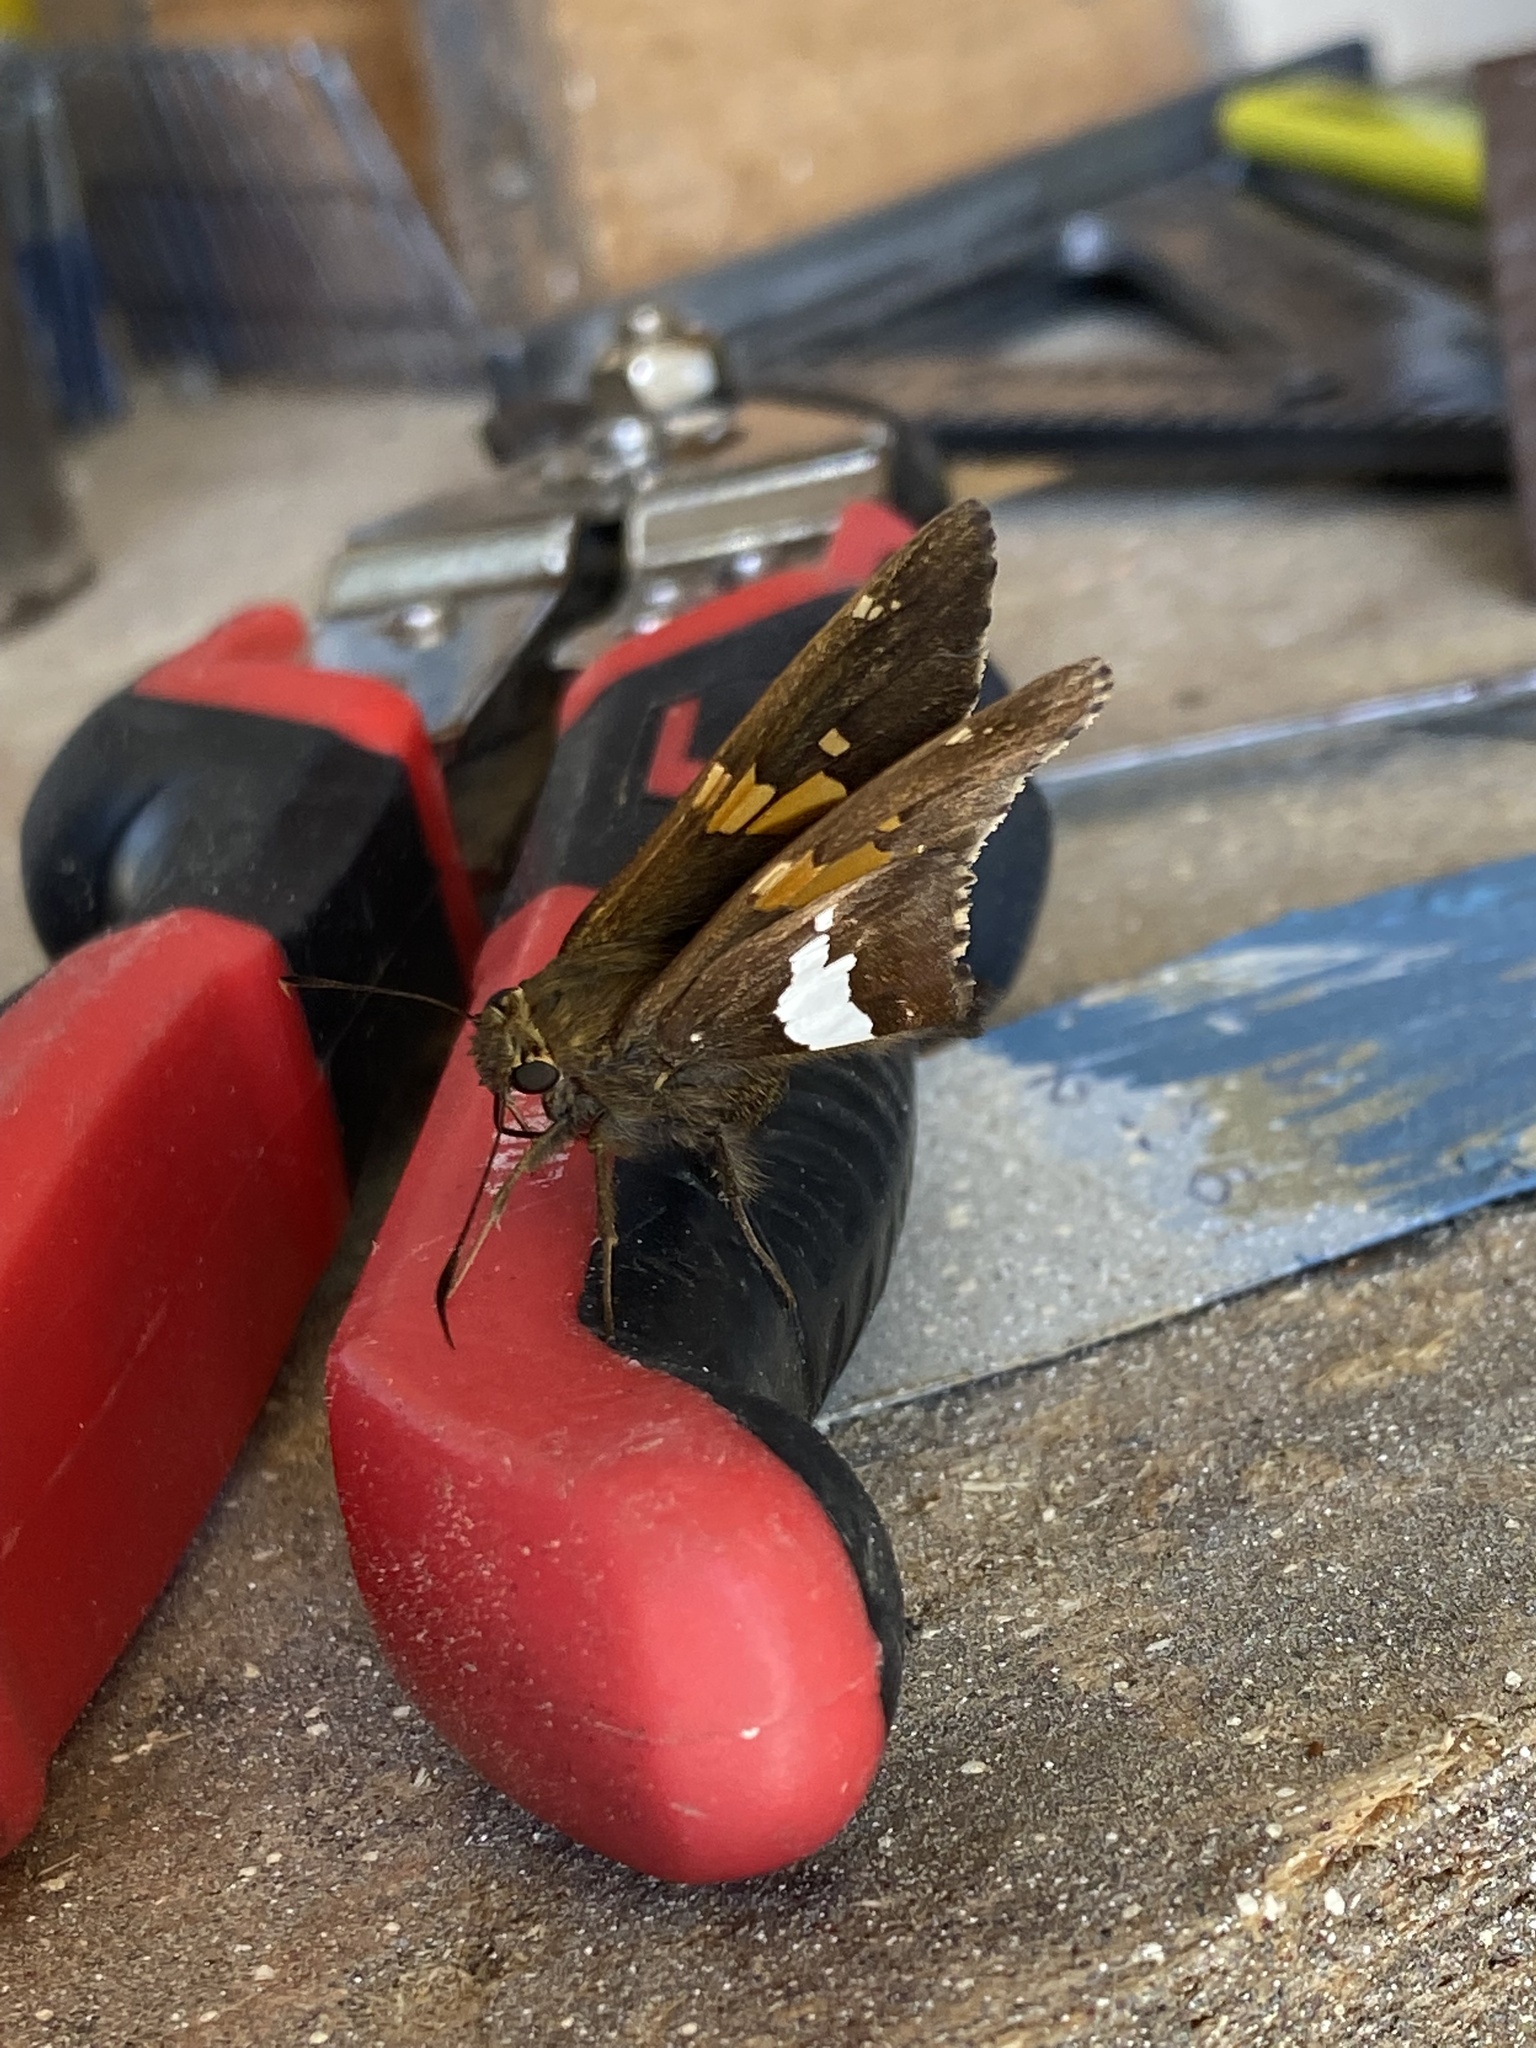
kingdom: Animalia
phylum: Arthropoda
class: Insecta
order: Lepidoptera
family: Hesperiidae
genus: Epargyreus
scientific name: Epargyreus clarus
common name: Silver-spotted skipper
